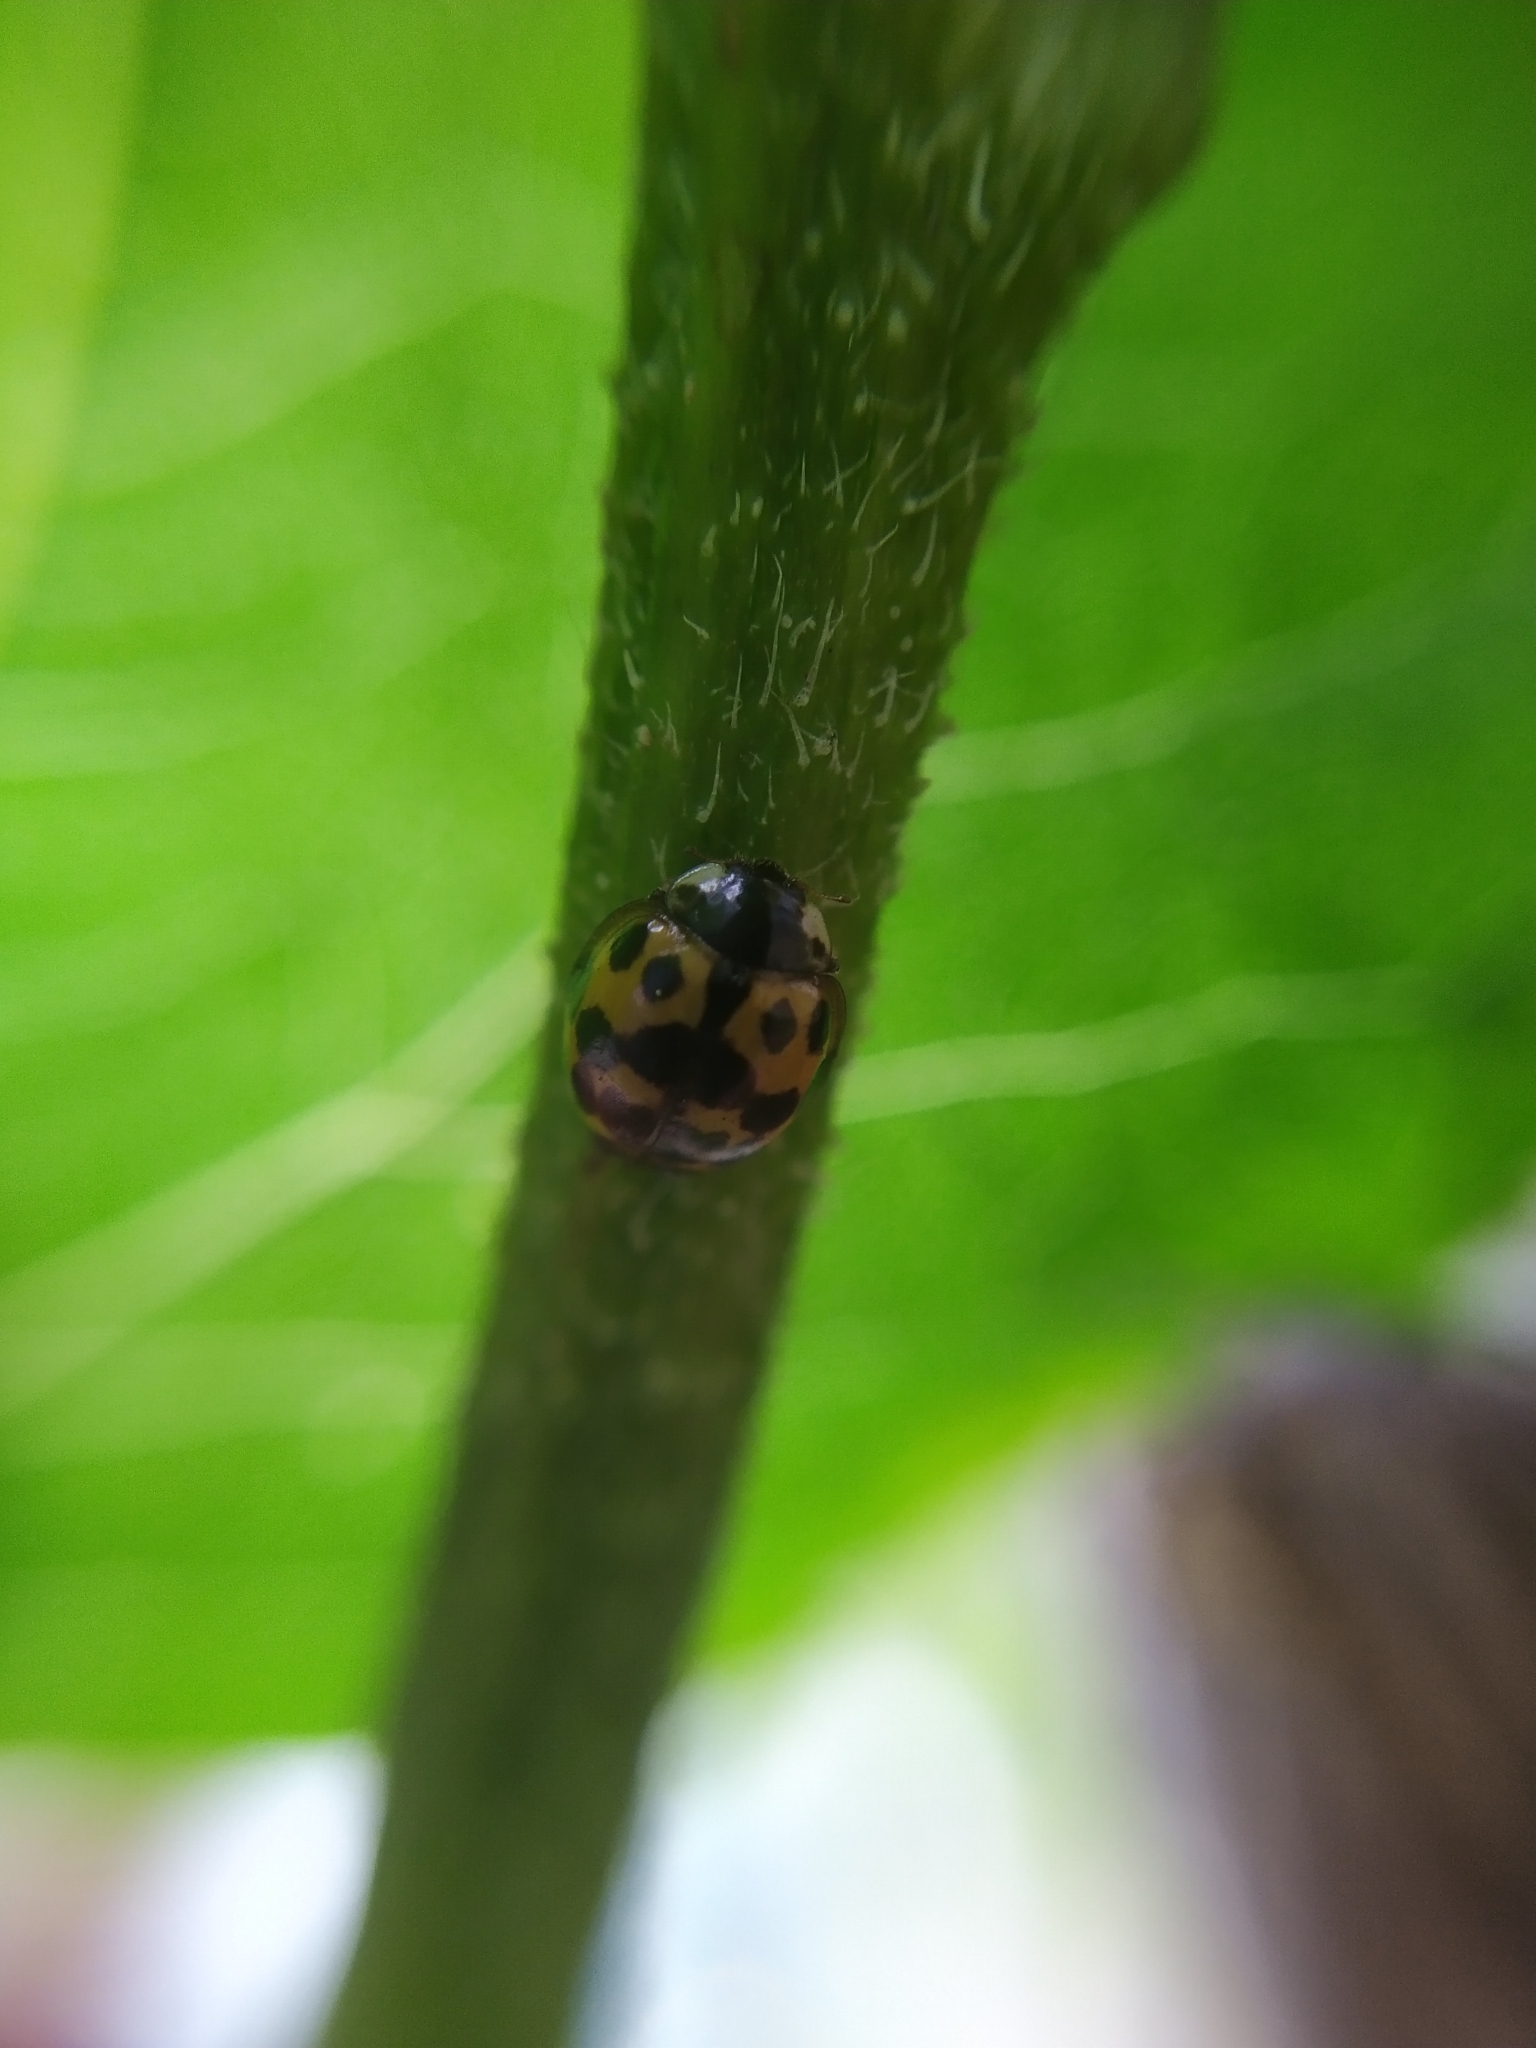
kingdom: Animalia
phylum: Arthropoda
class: Insecta
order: Coleoptera
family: Coccinellidae
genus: Harmonia
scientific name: Harmonia axyridis
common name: Harlequin ladybird
